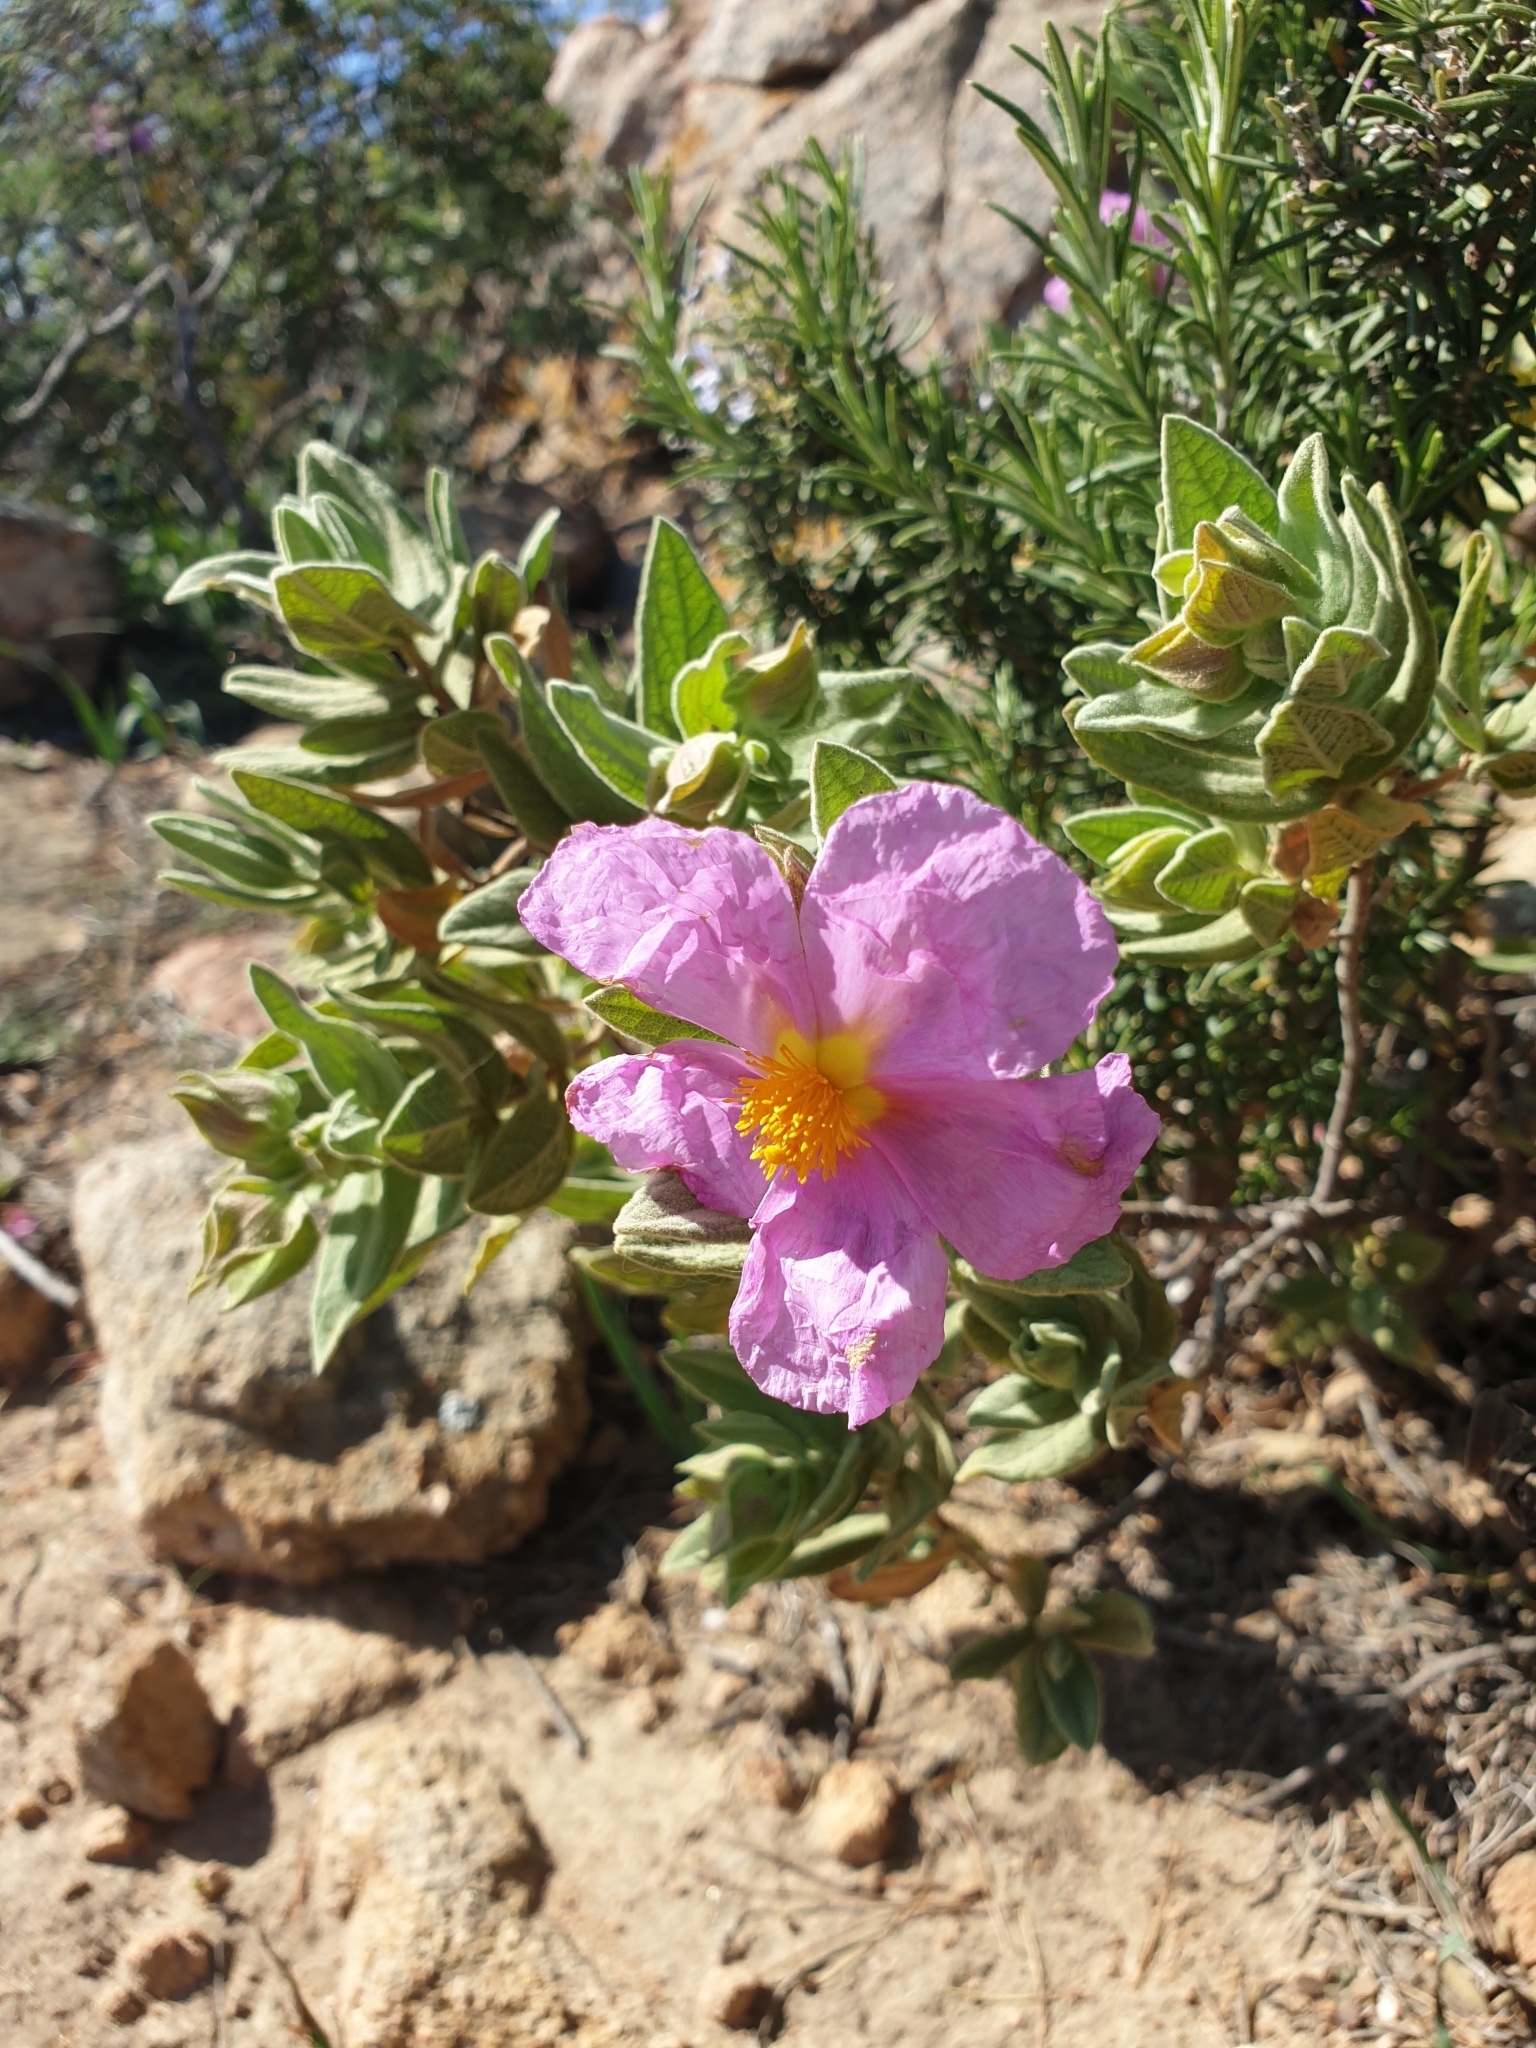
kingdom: Plantae
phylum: Tracheophyta
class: Magnoliopsida
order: Malvales
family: Cistaceae
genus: Cistus
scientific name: Cistus albidus
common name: White-leaf rock-rose
